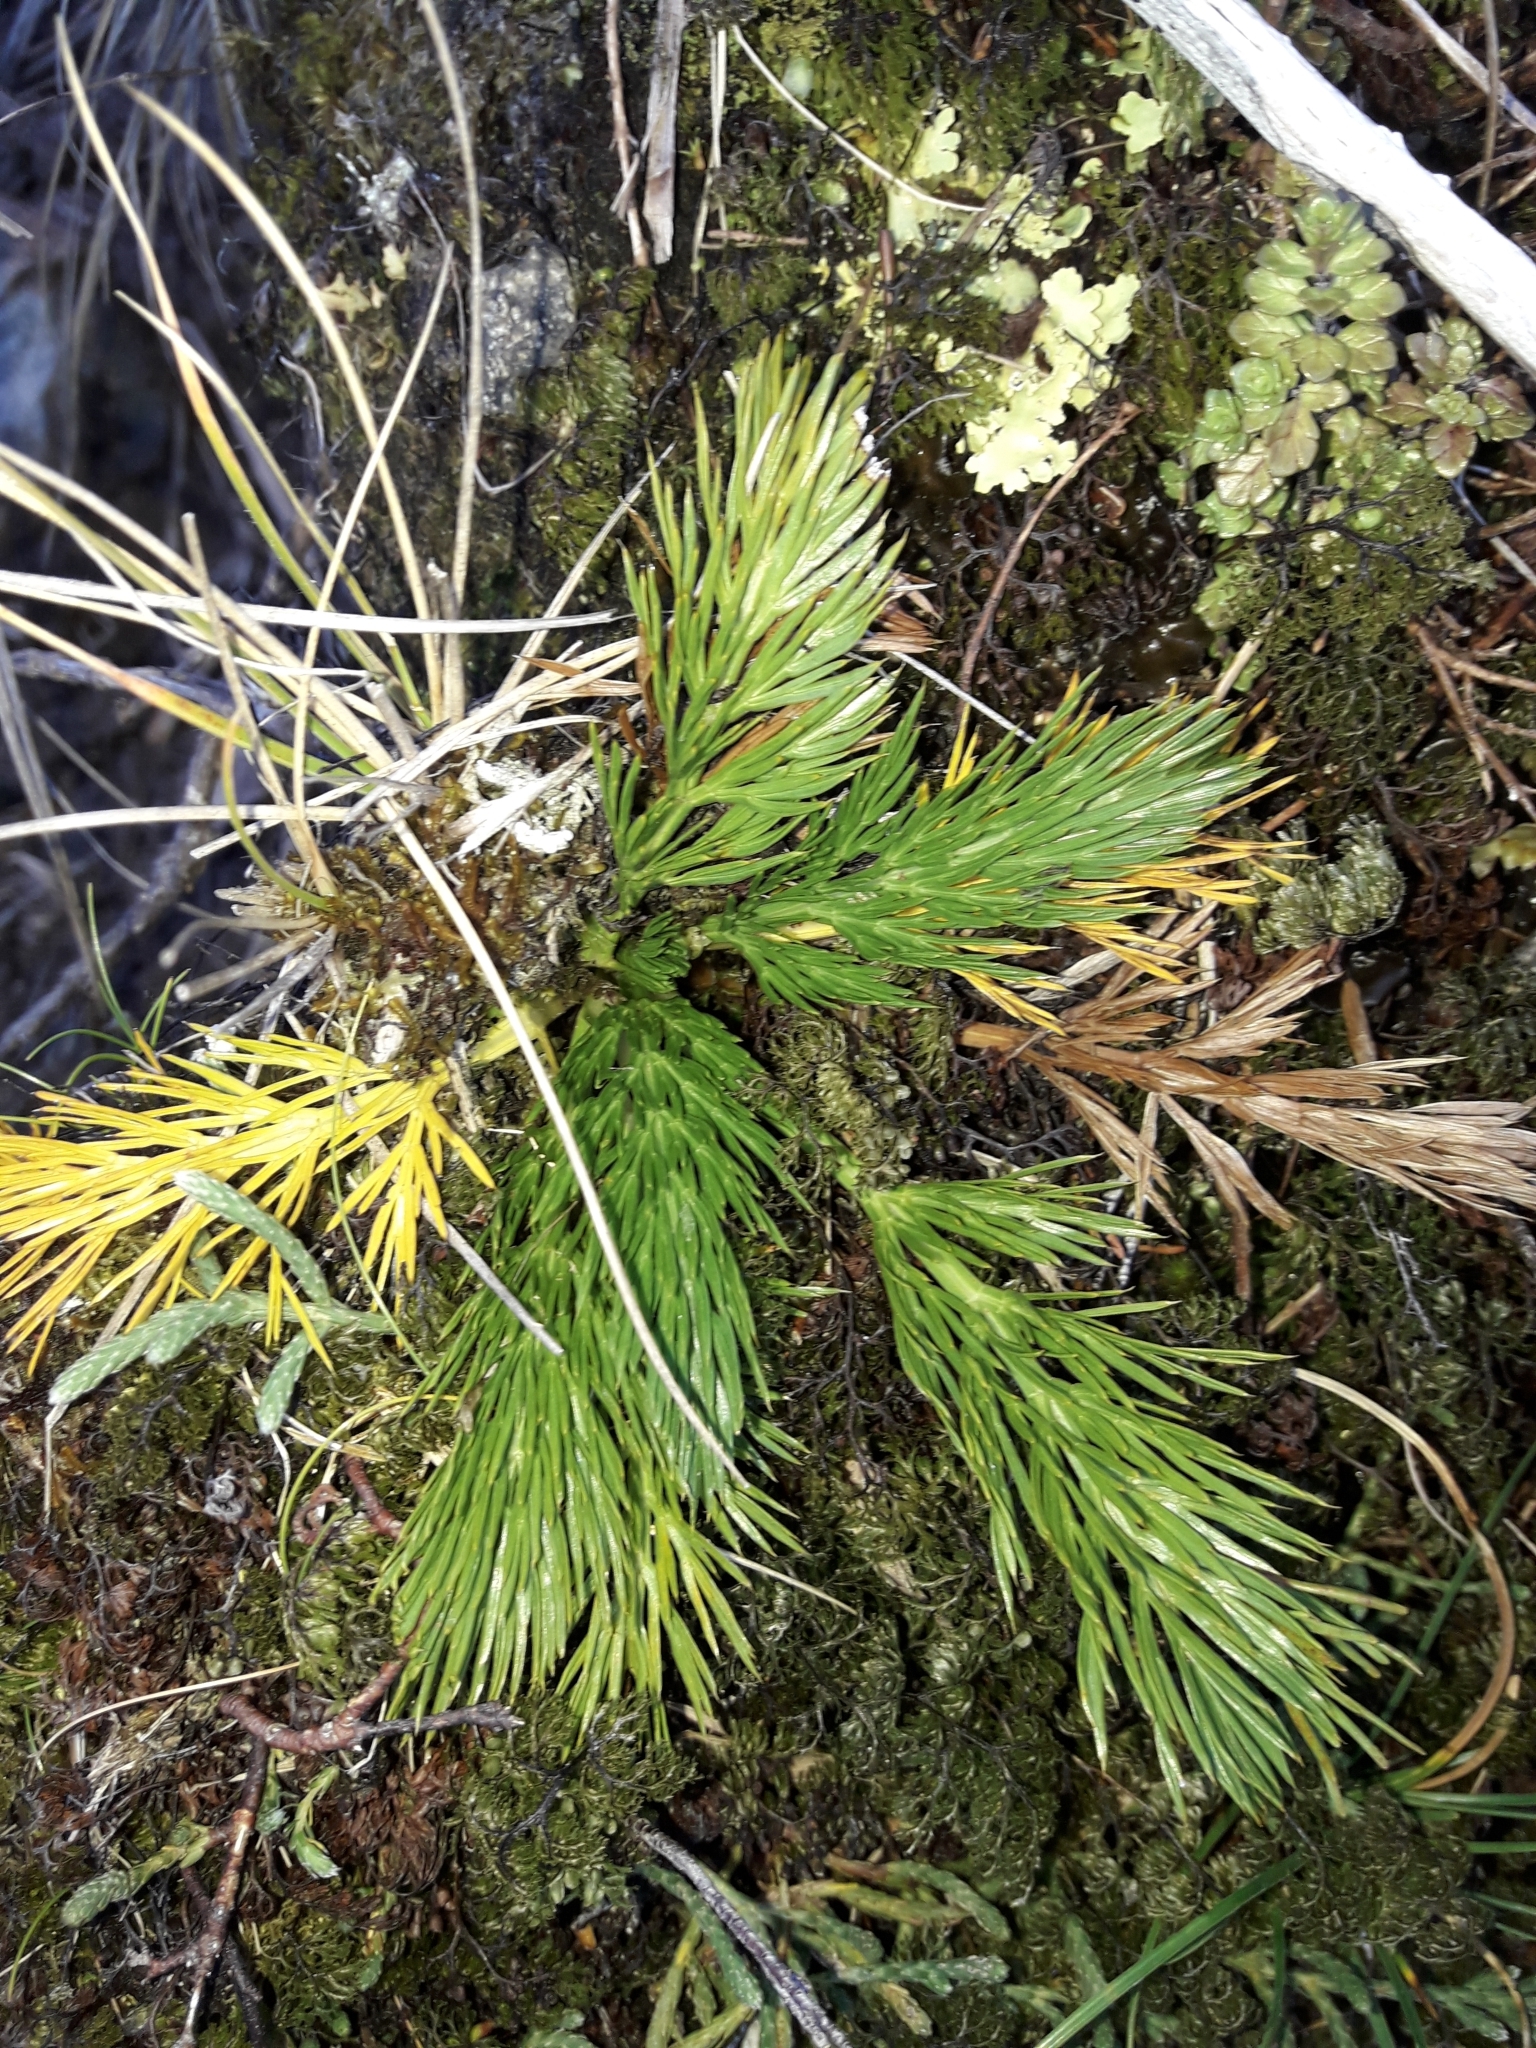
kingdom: Plantae
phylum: Tracheophyta
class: Magnoliopsida
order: Apiales
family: Apiaceae
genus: Aciphylla
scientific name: Aciphylla dissecta
